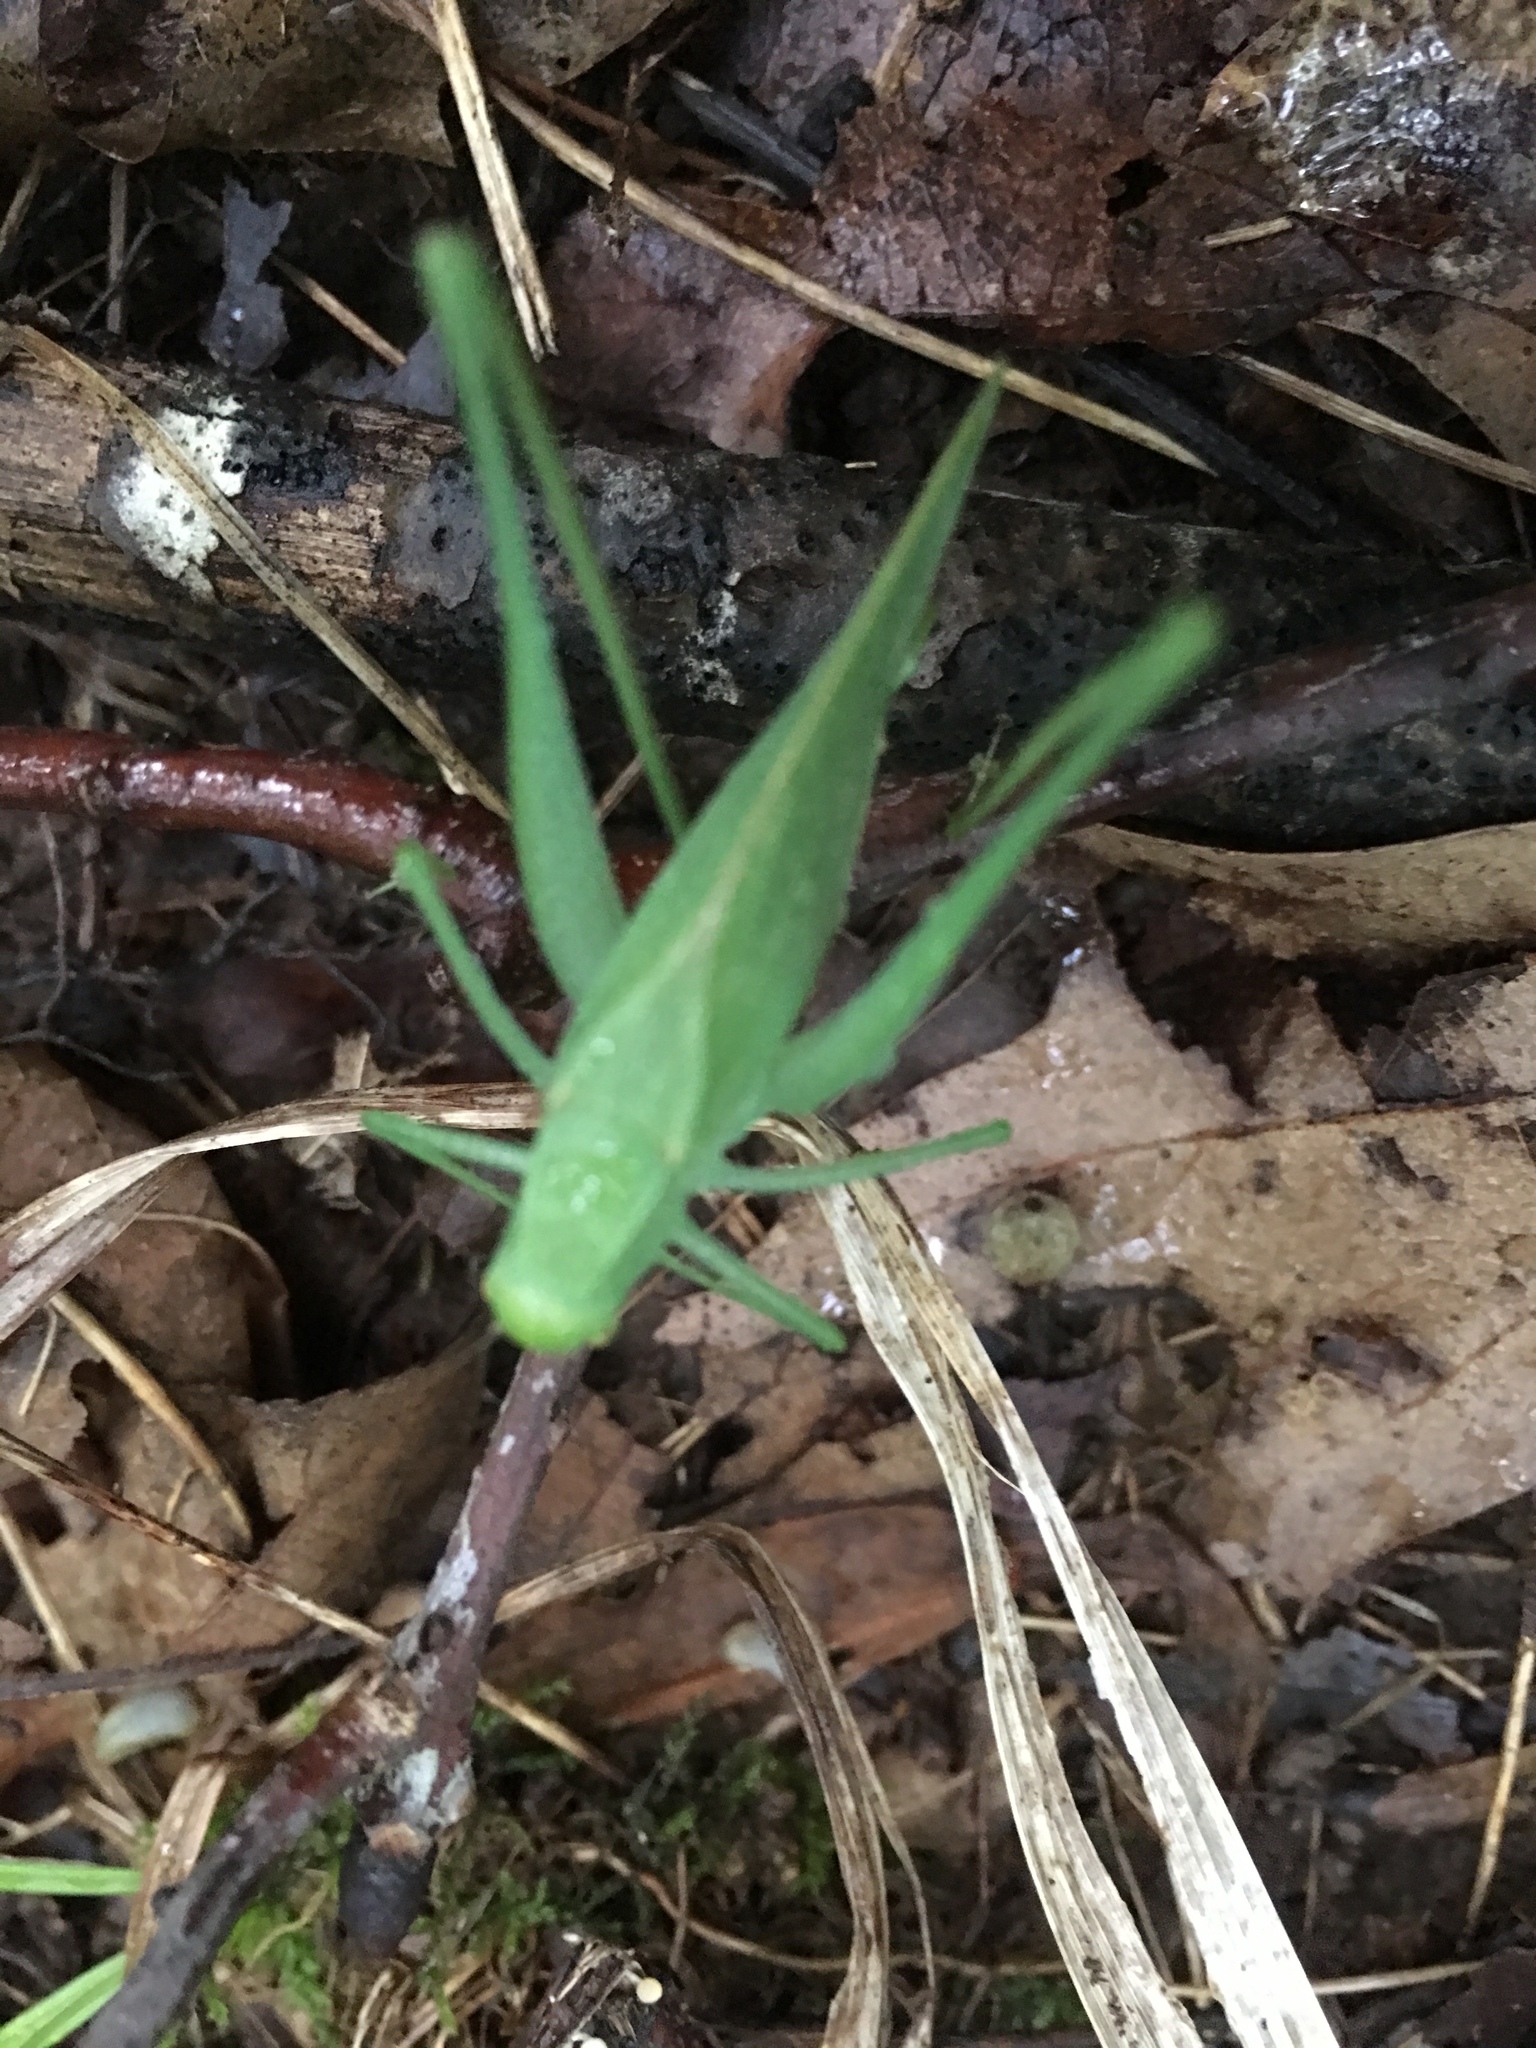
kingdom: Animalia
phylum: Arthropoda
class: Insecta
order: Orthoptera
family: Tettigoniidae
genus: Amblycorypha
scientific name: Amblycorypha
